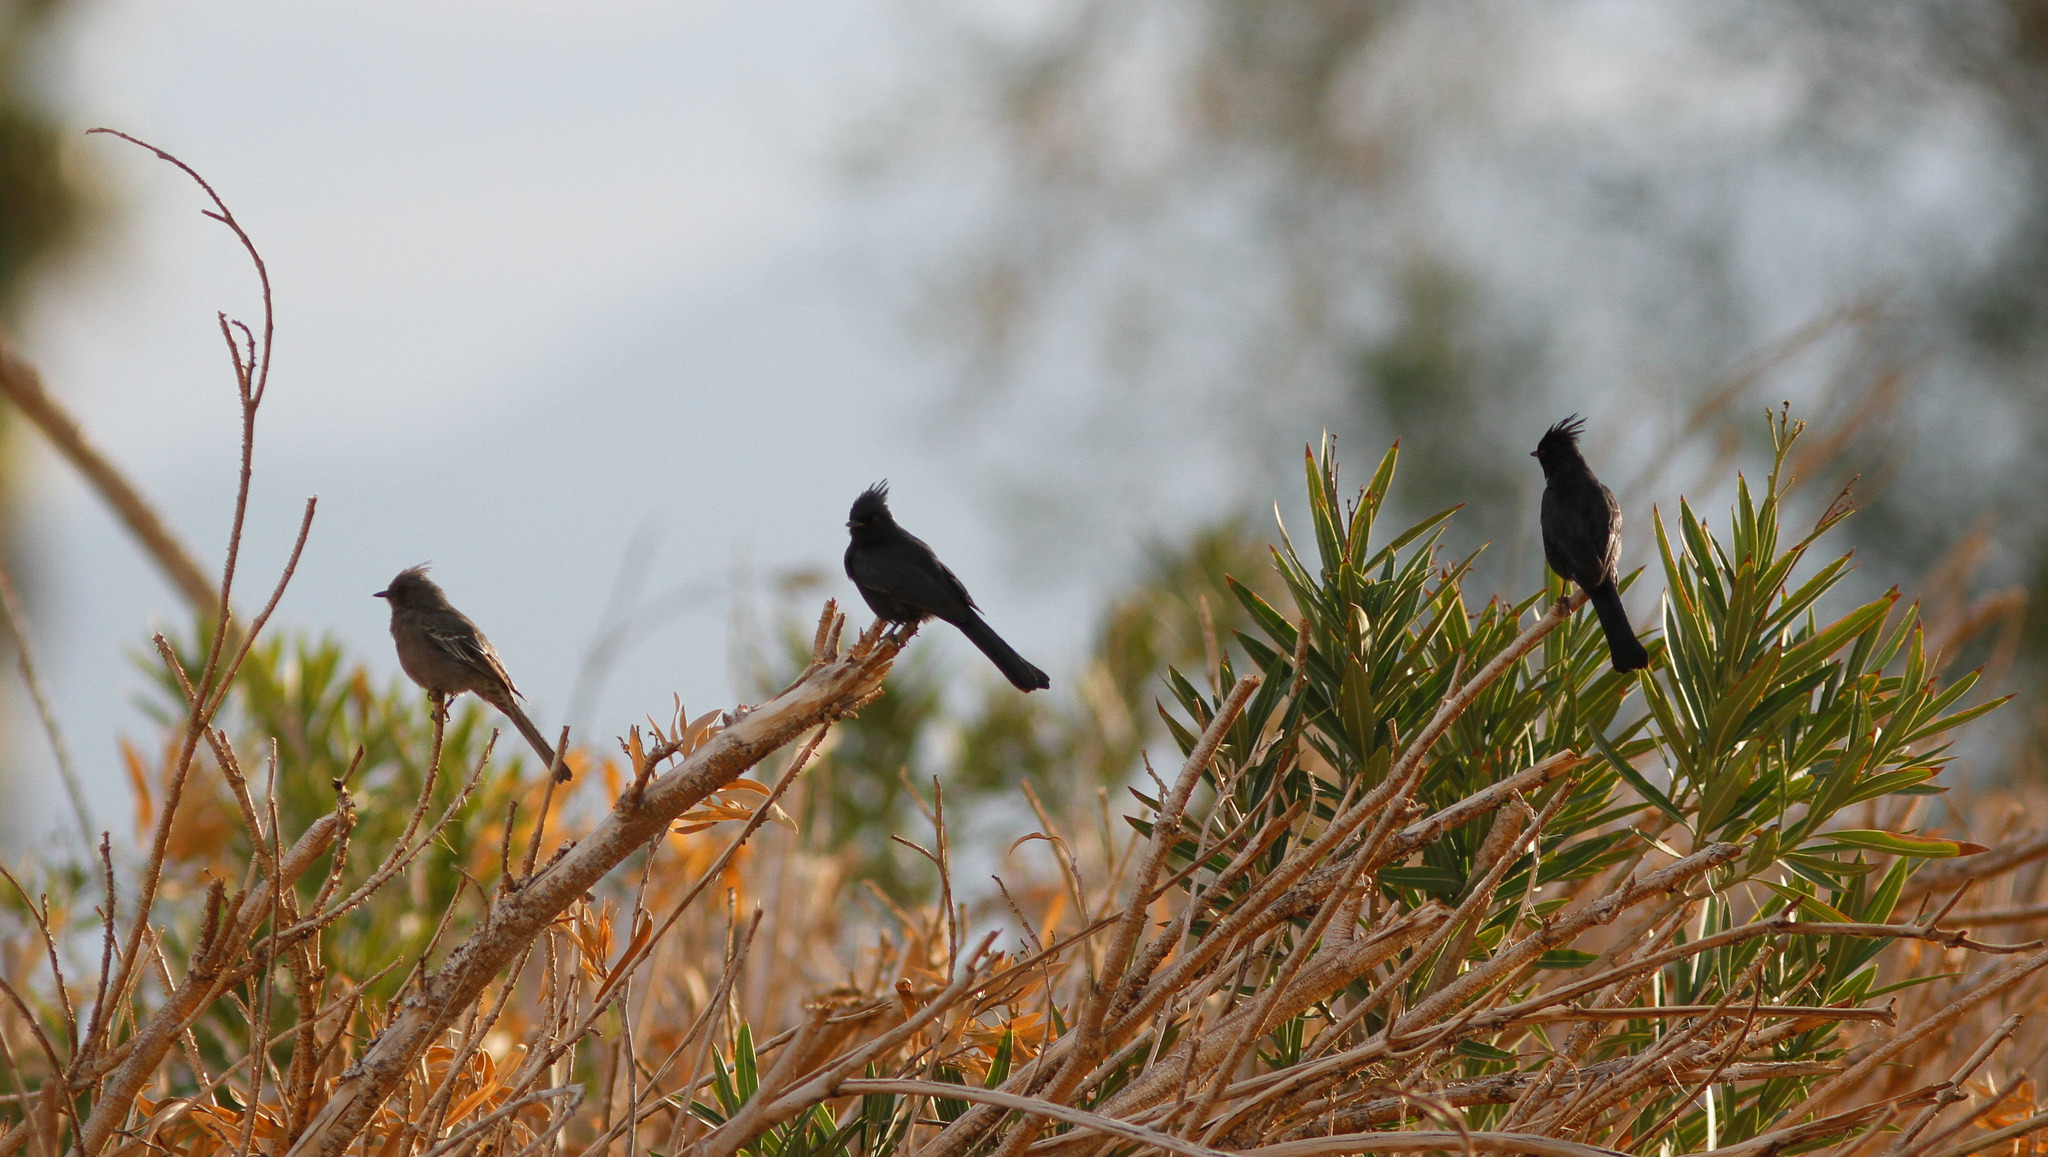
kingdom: Animalia
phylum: Chordata
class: Aves
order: Passeriformes
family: Ptilogonatidae
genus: Phainopepla
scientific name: Phainopepla nitens
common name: Phainopepla
